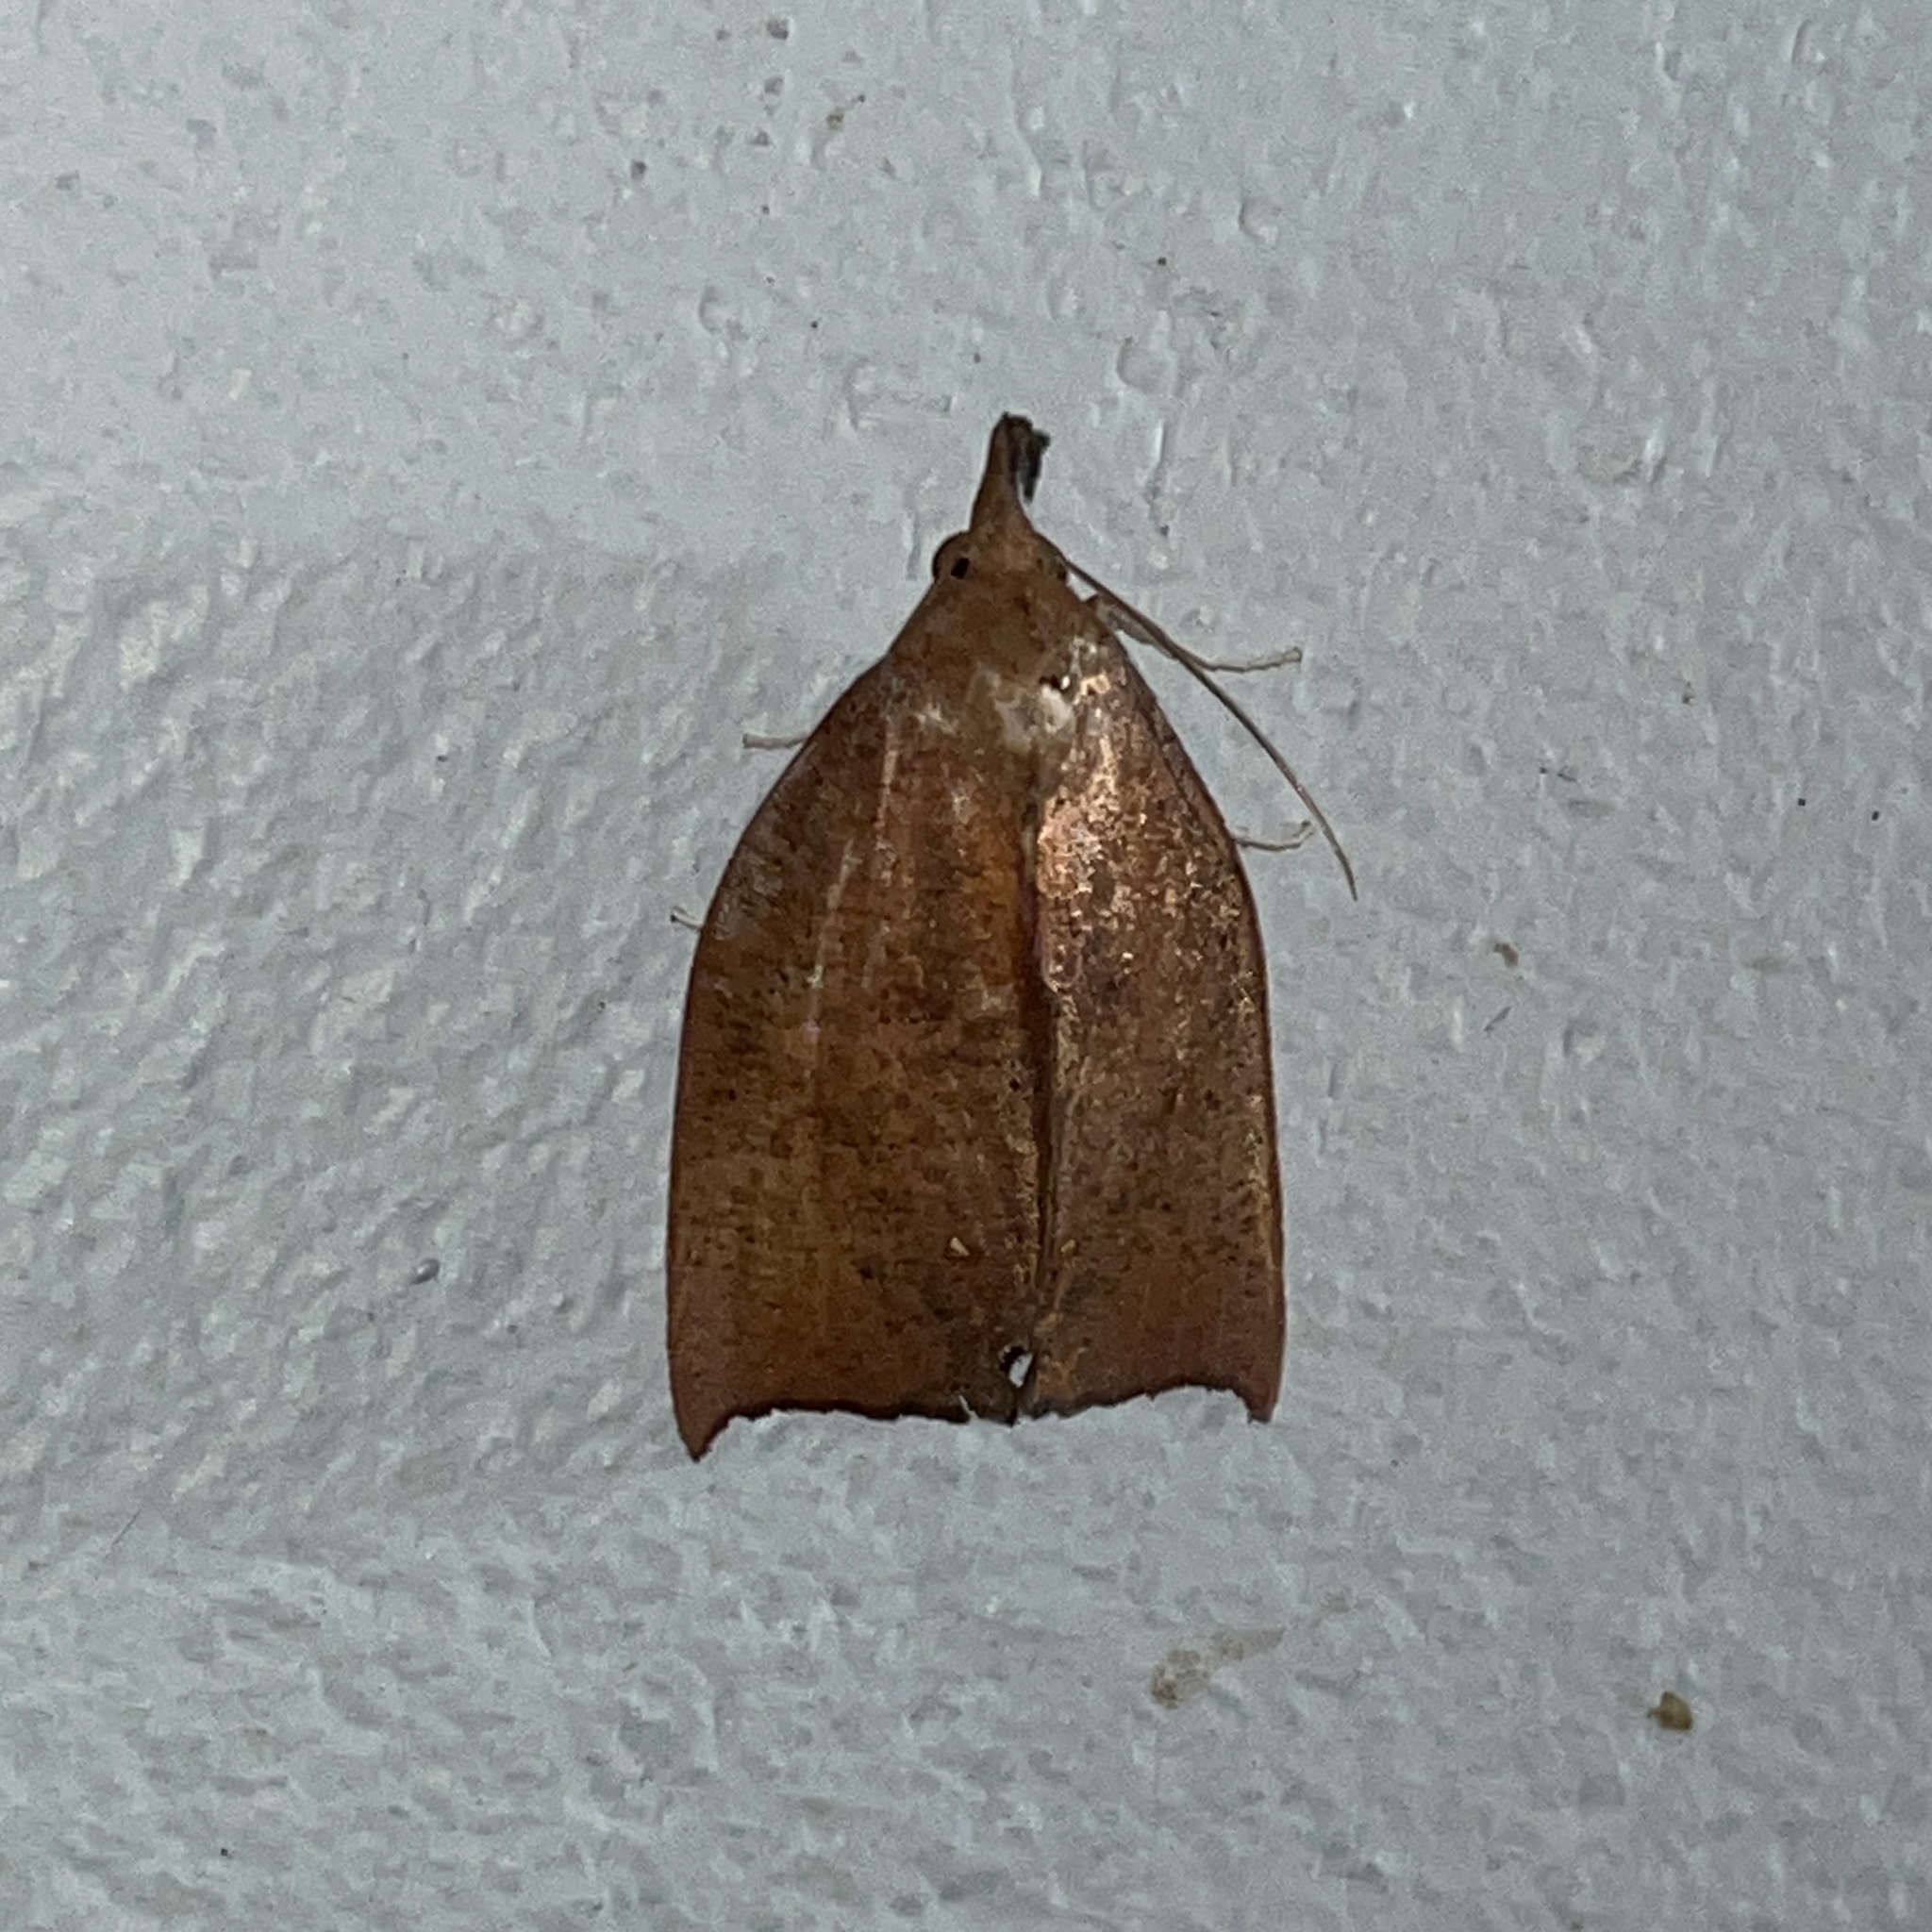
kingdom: Animalia
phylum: Arthropoda
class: Insecta
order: Lepidoptera
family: Erebidae
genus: Goniapteryx
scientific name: Goniapteryx servia
